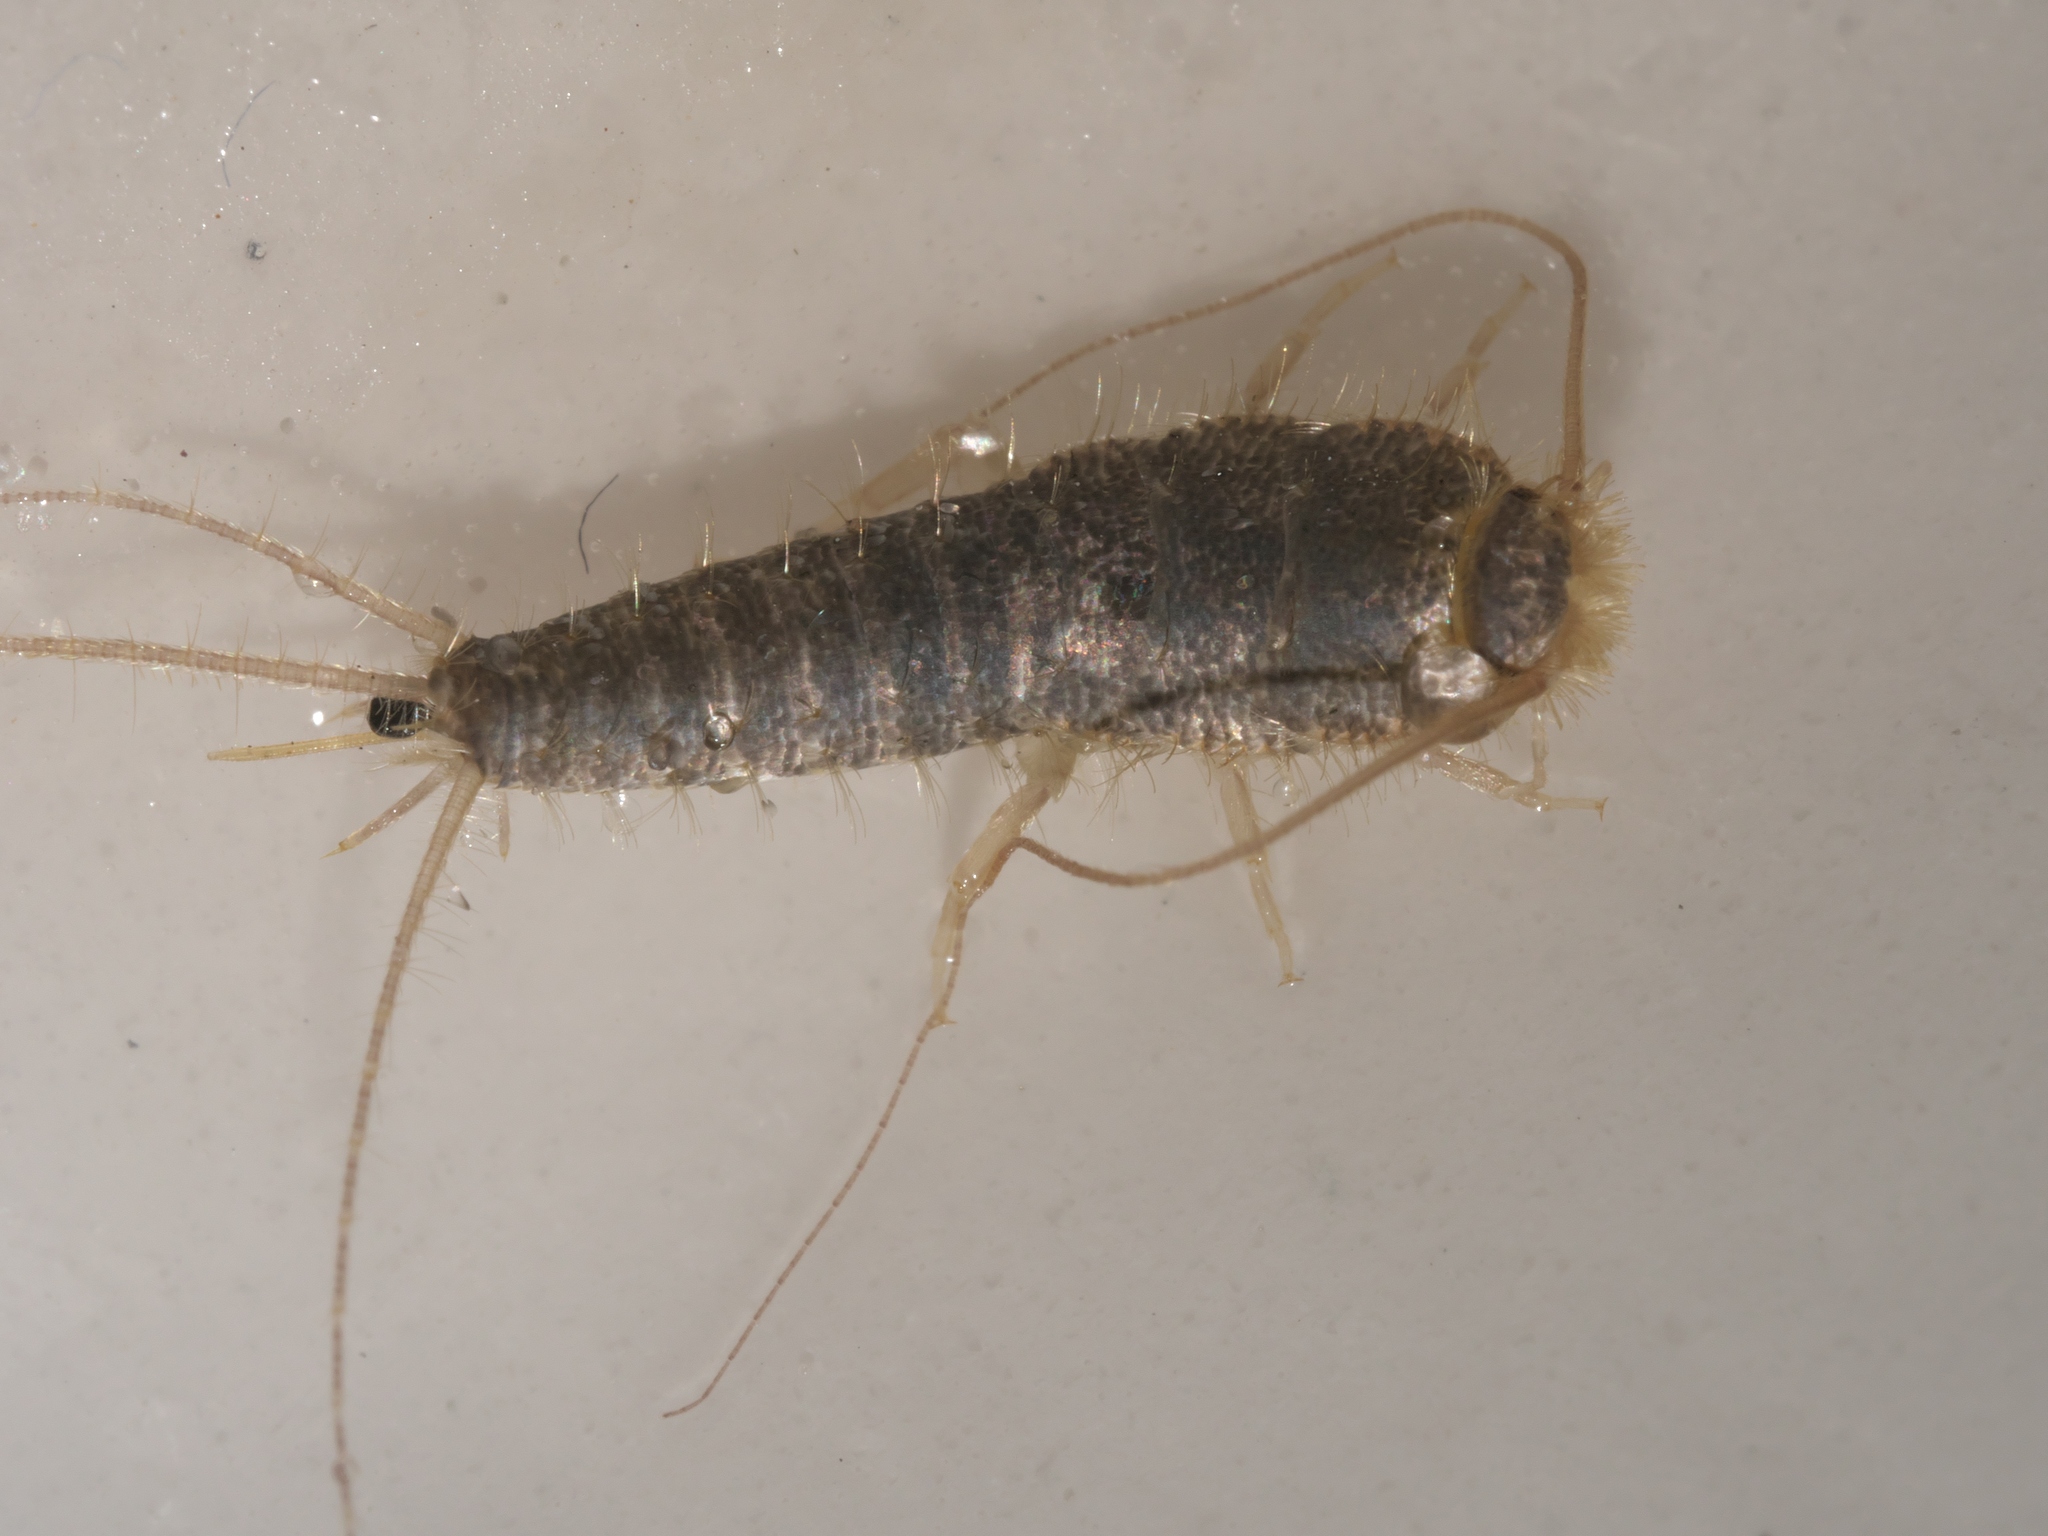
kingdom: Animalia
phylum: Arthropoda
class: Insecta
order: Zygentoma
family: Lepismatidae
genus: Ctenolepisma
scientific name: Ctenolepisma longicaudatum
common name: Silverfish
